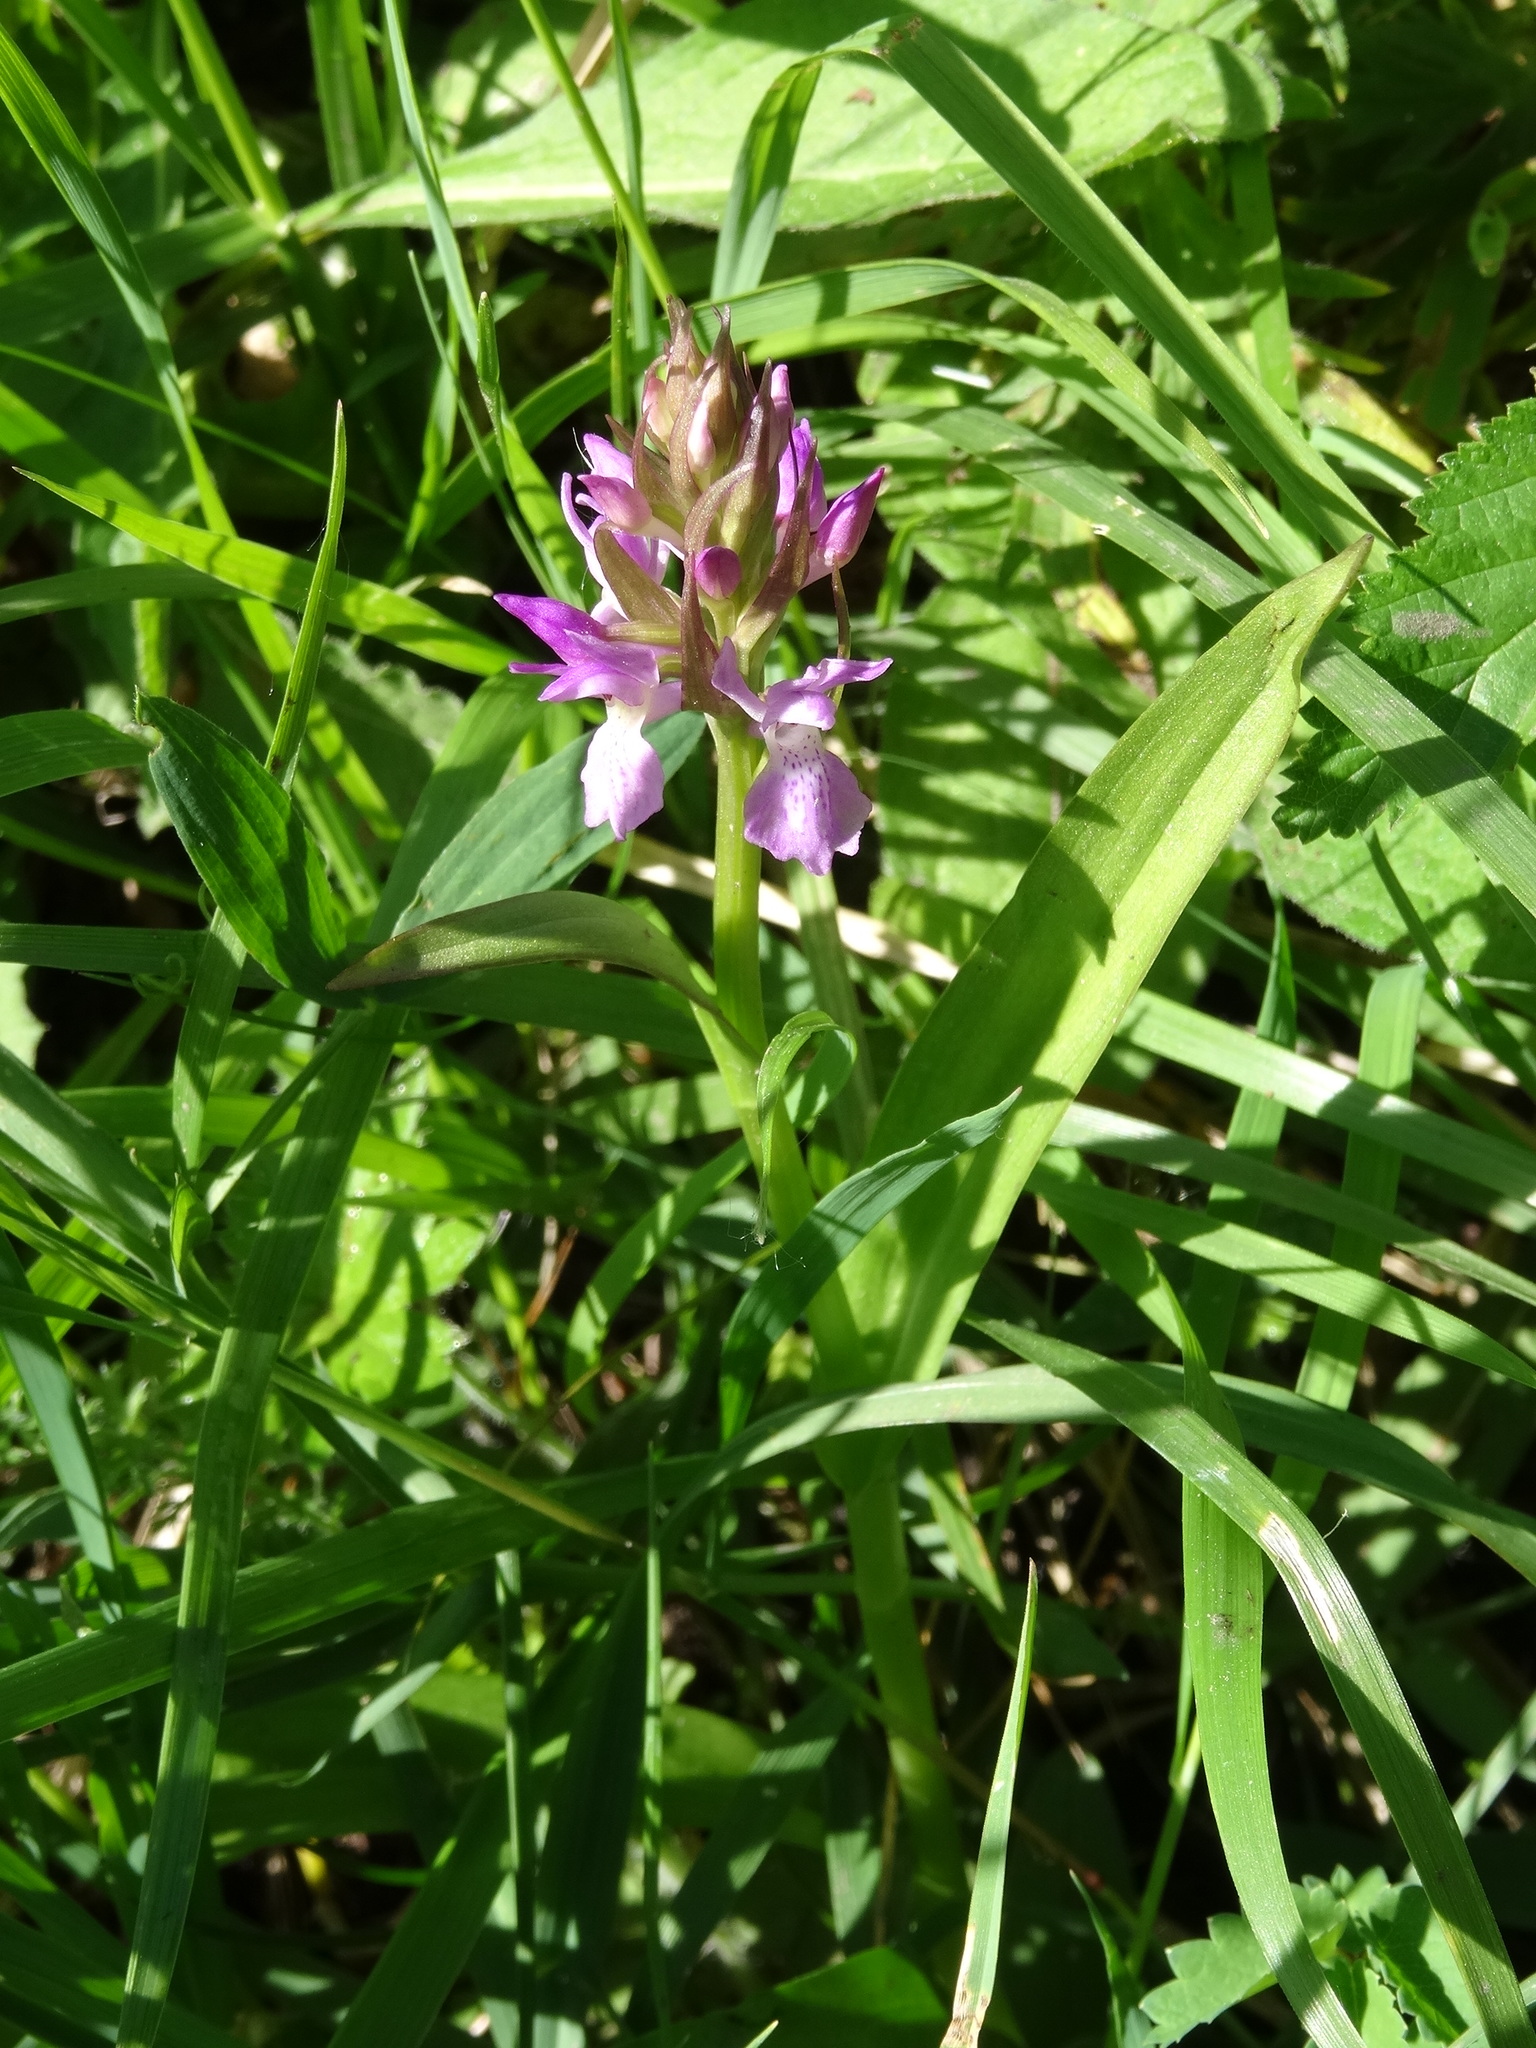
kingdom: Plantae
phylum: Tracheophyta
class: Liliopsida
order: Asparagales
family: Orchidaceae
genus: Dactylorhiza
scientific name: Dactylorhiza majalis
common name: Marsh orchid
